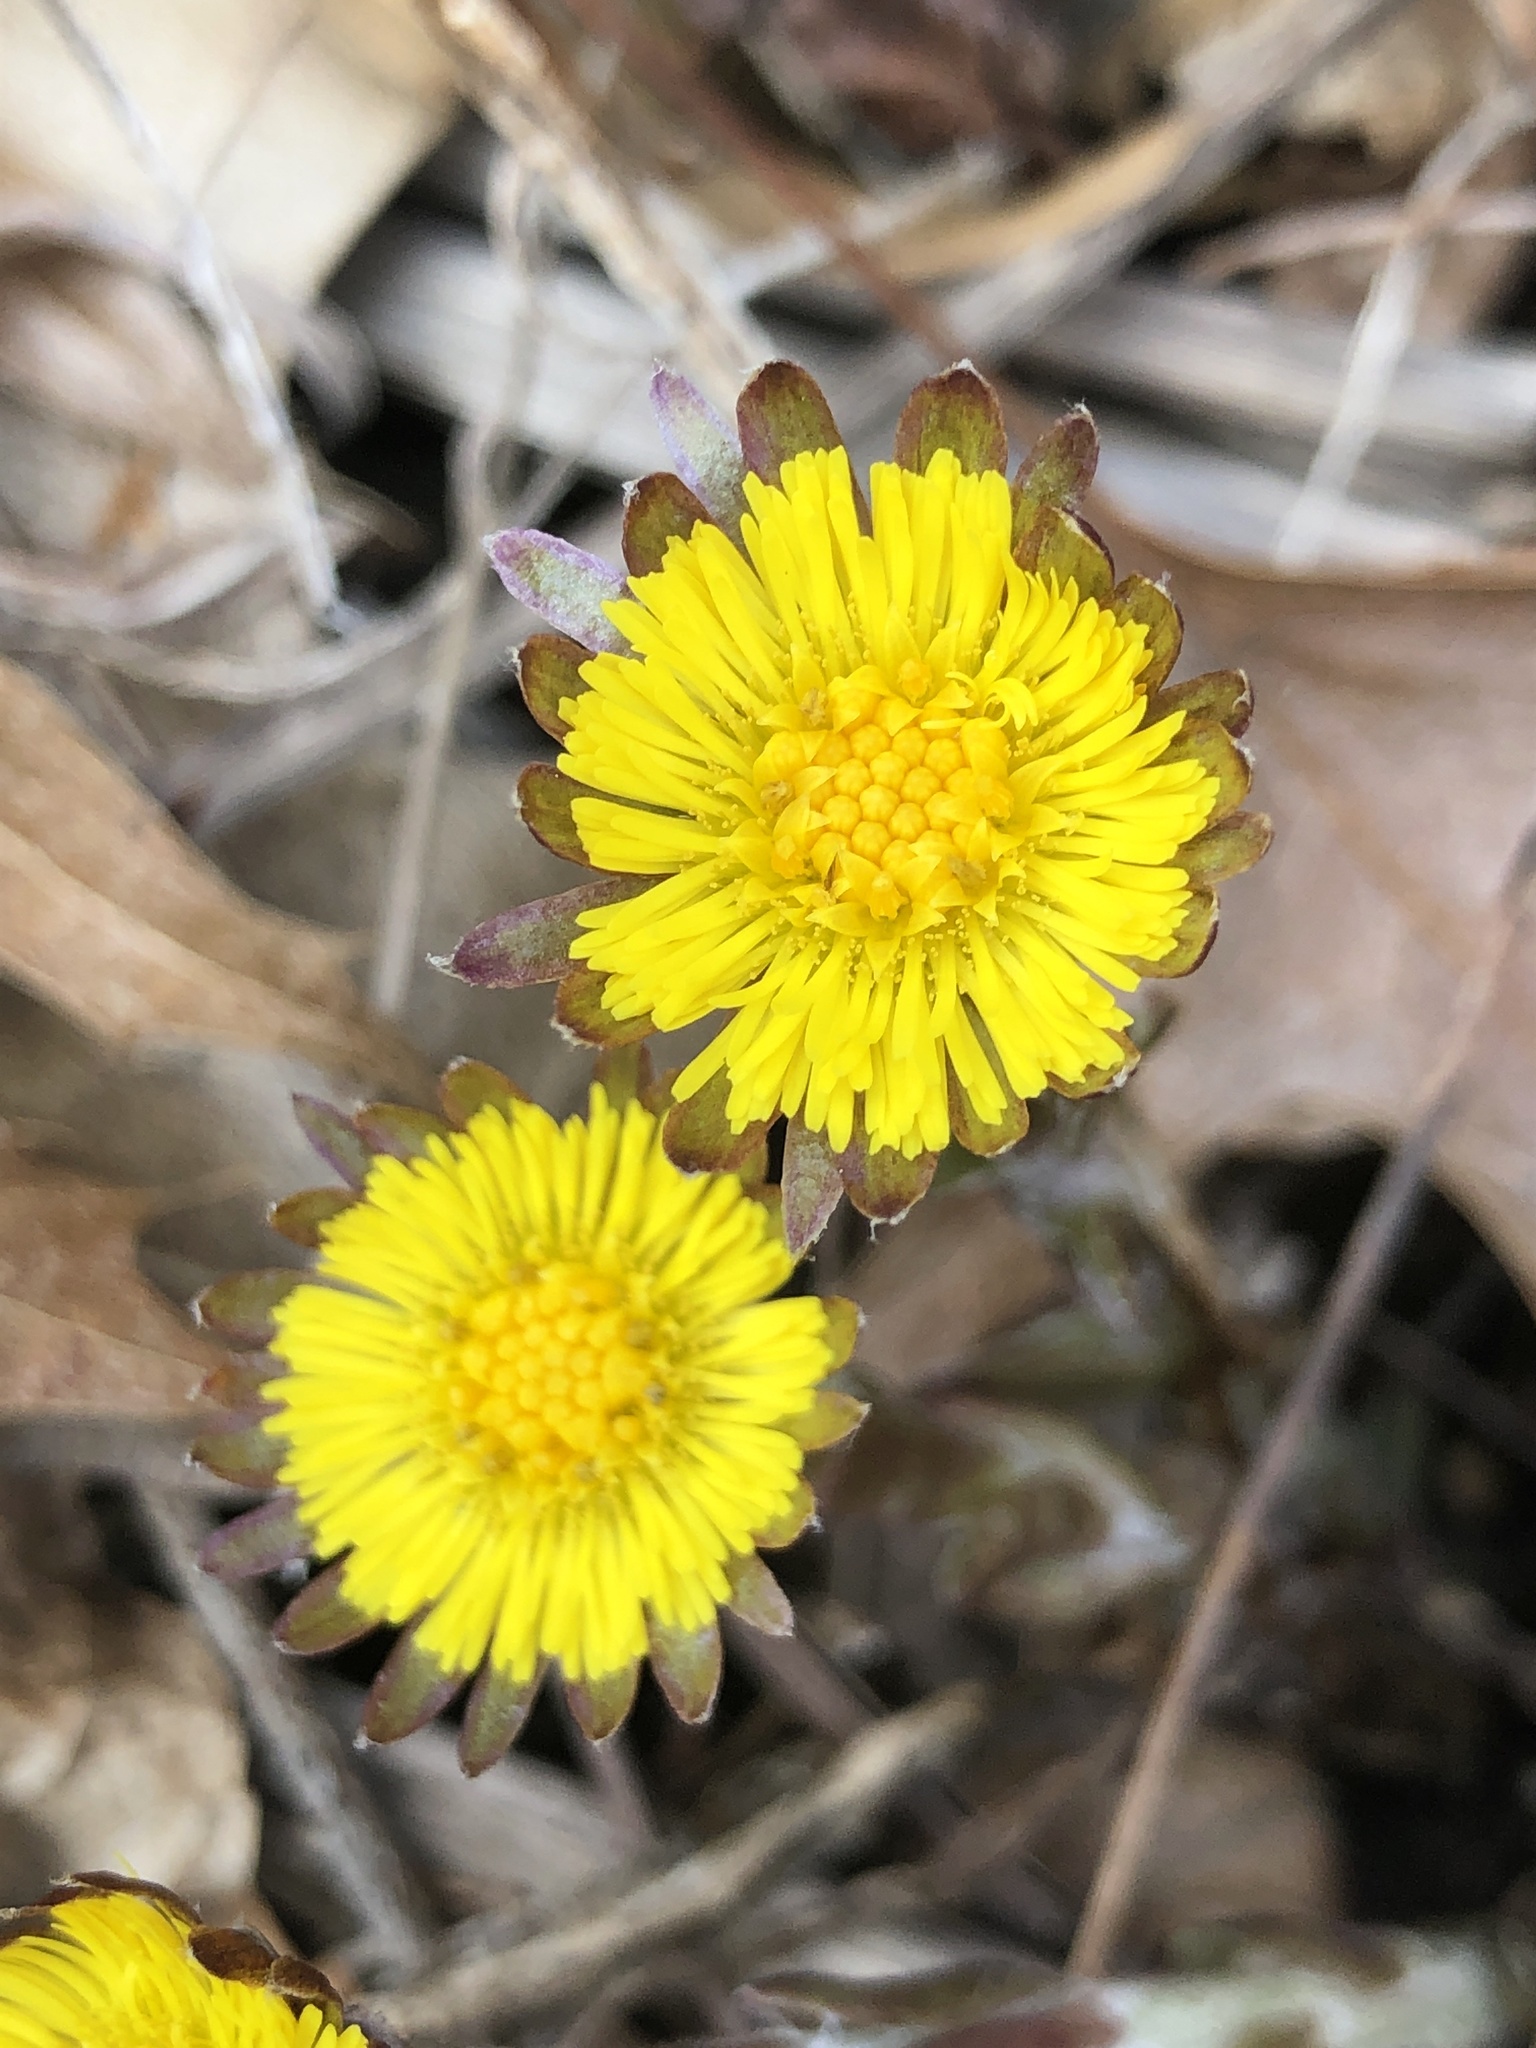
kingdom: Plantae
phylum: Tracheophyta
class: Magnoliopsida
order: Asterales
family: Asteraceae
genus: Tussilago
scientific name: Tussilago farfara
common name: Coltsfoot
